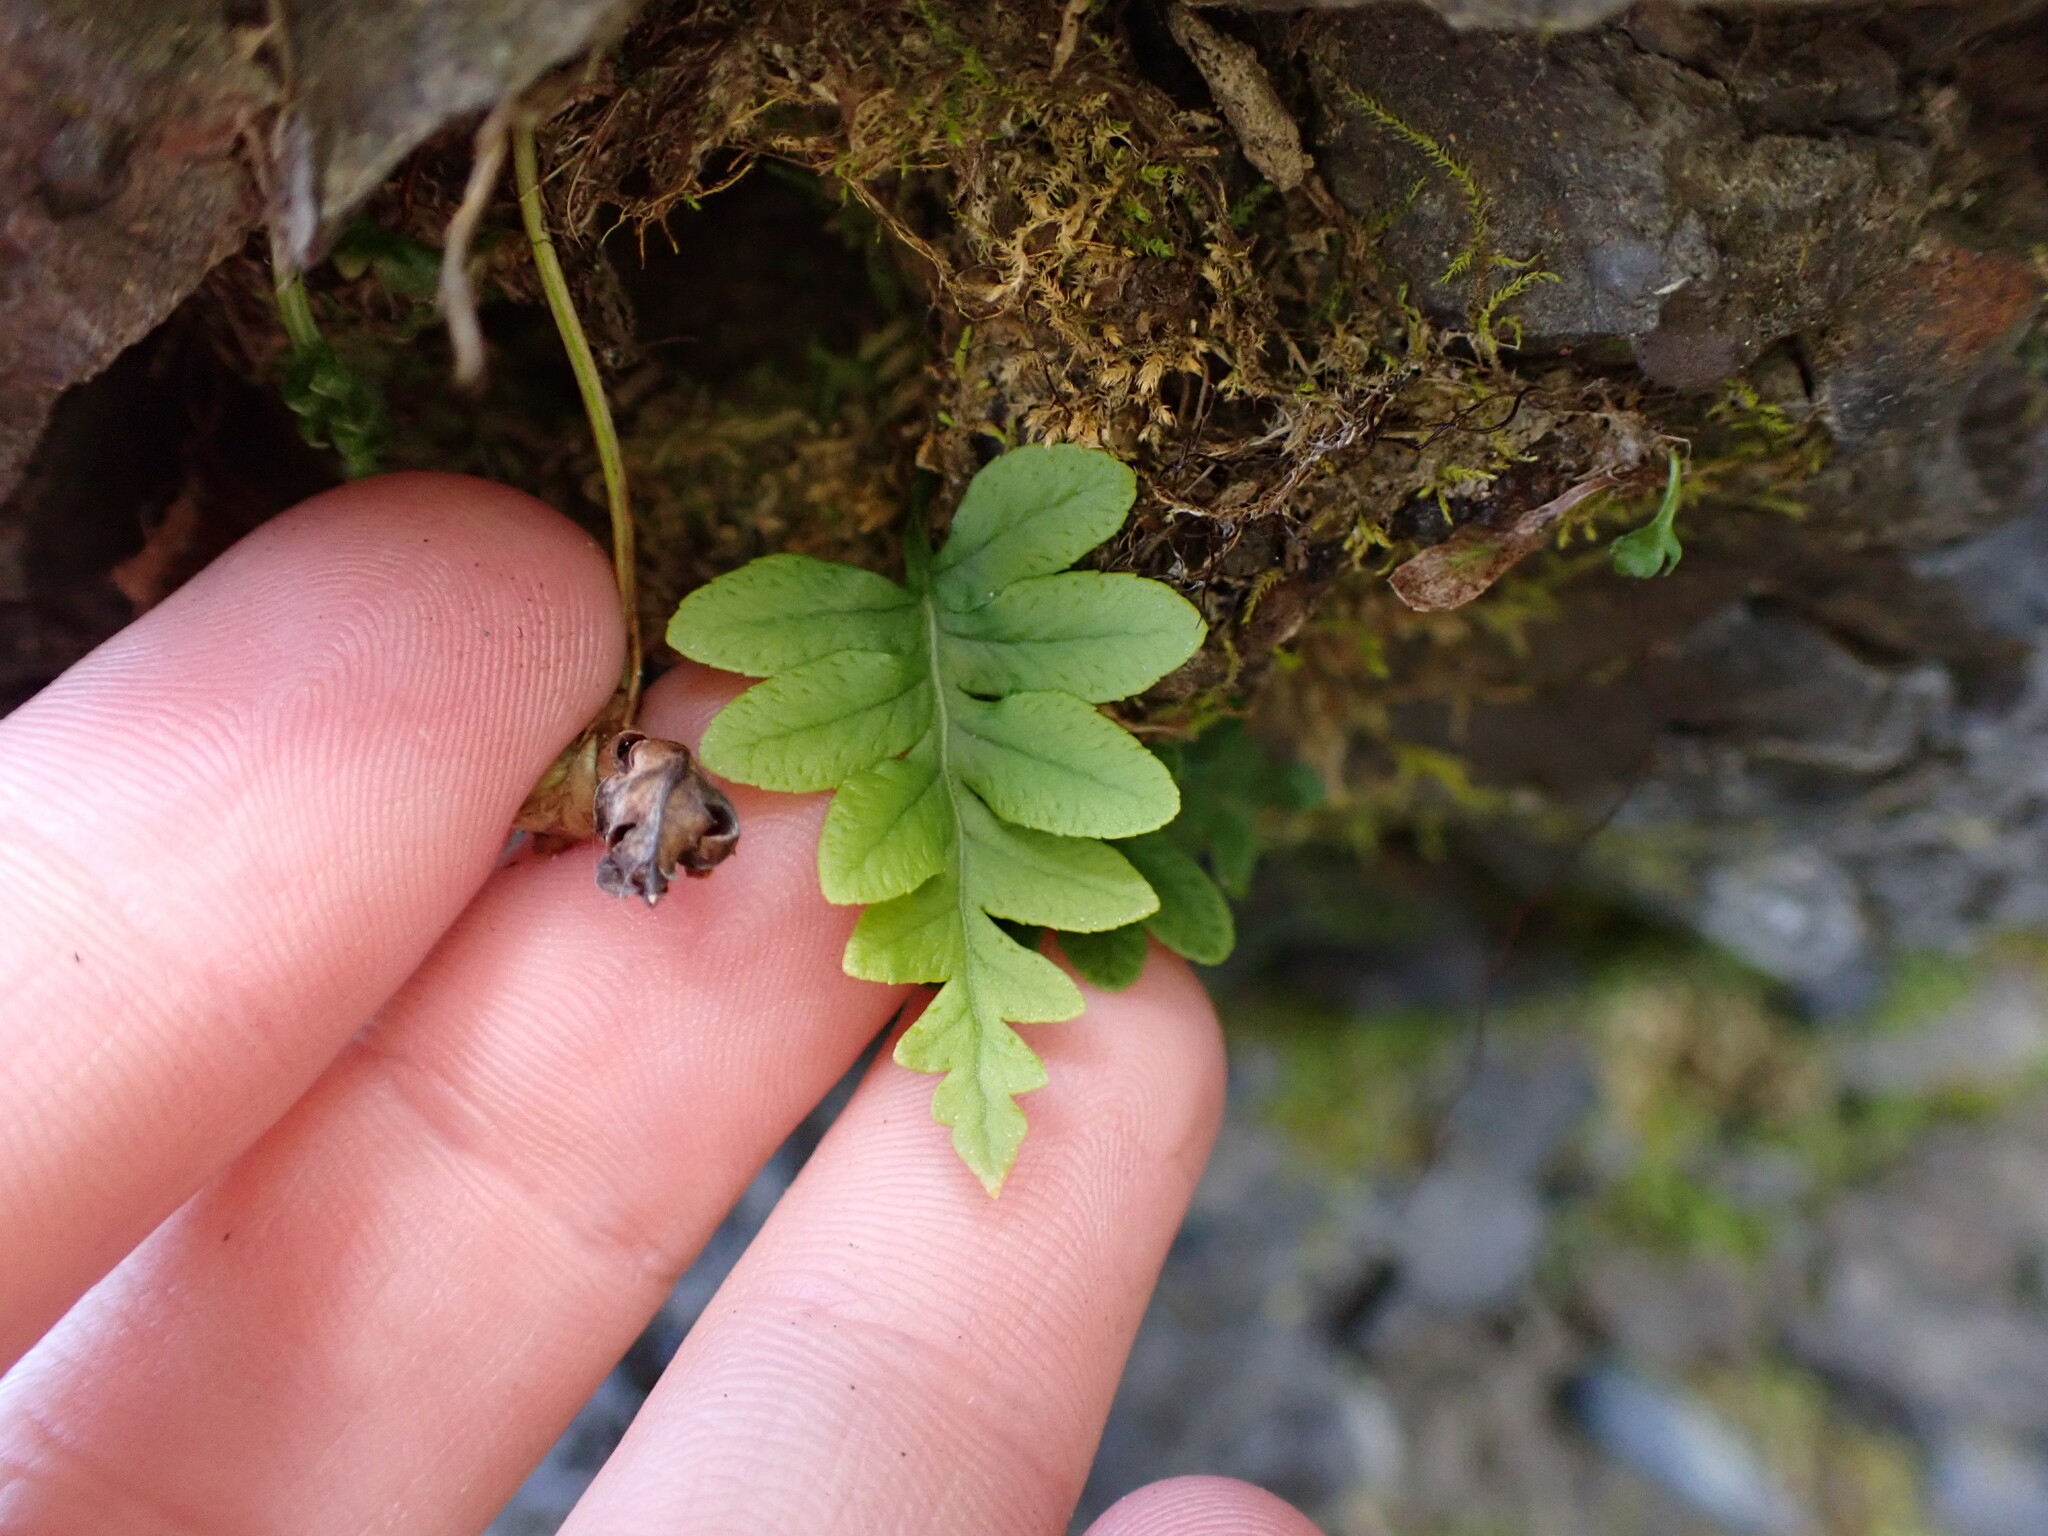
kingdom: Plantae
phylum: Tracheophyta
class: Polypodiopsida
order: Polypodiales
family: Polypodiaceae
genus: Polypodium
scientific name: Polypodium glycyrrhiza
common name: Licorice fern
